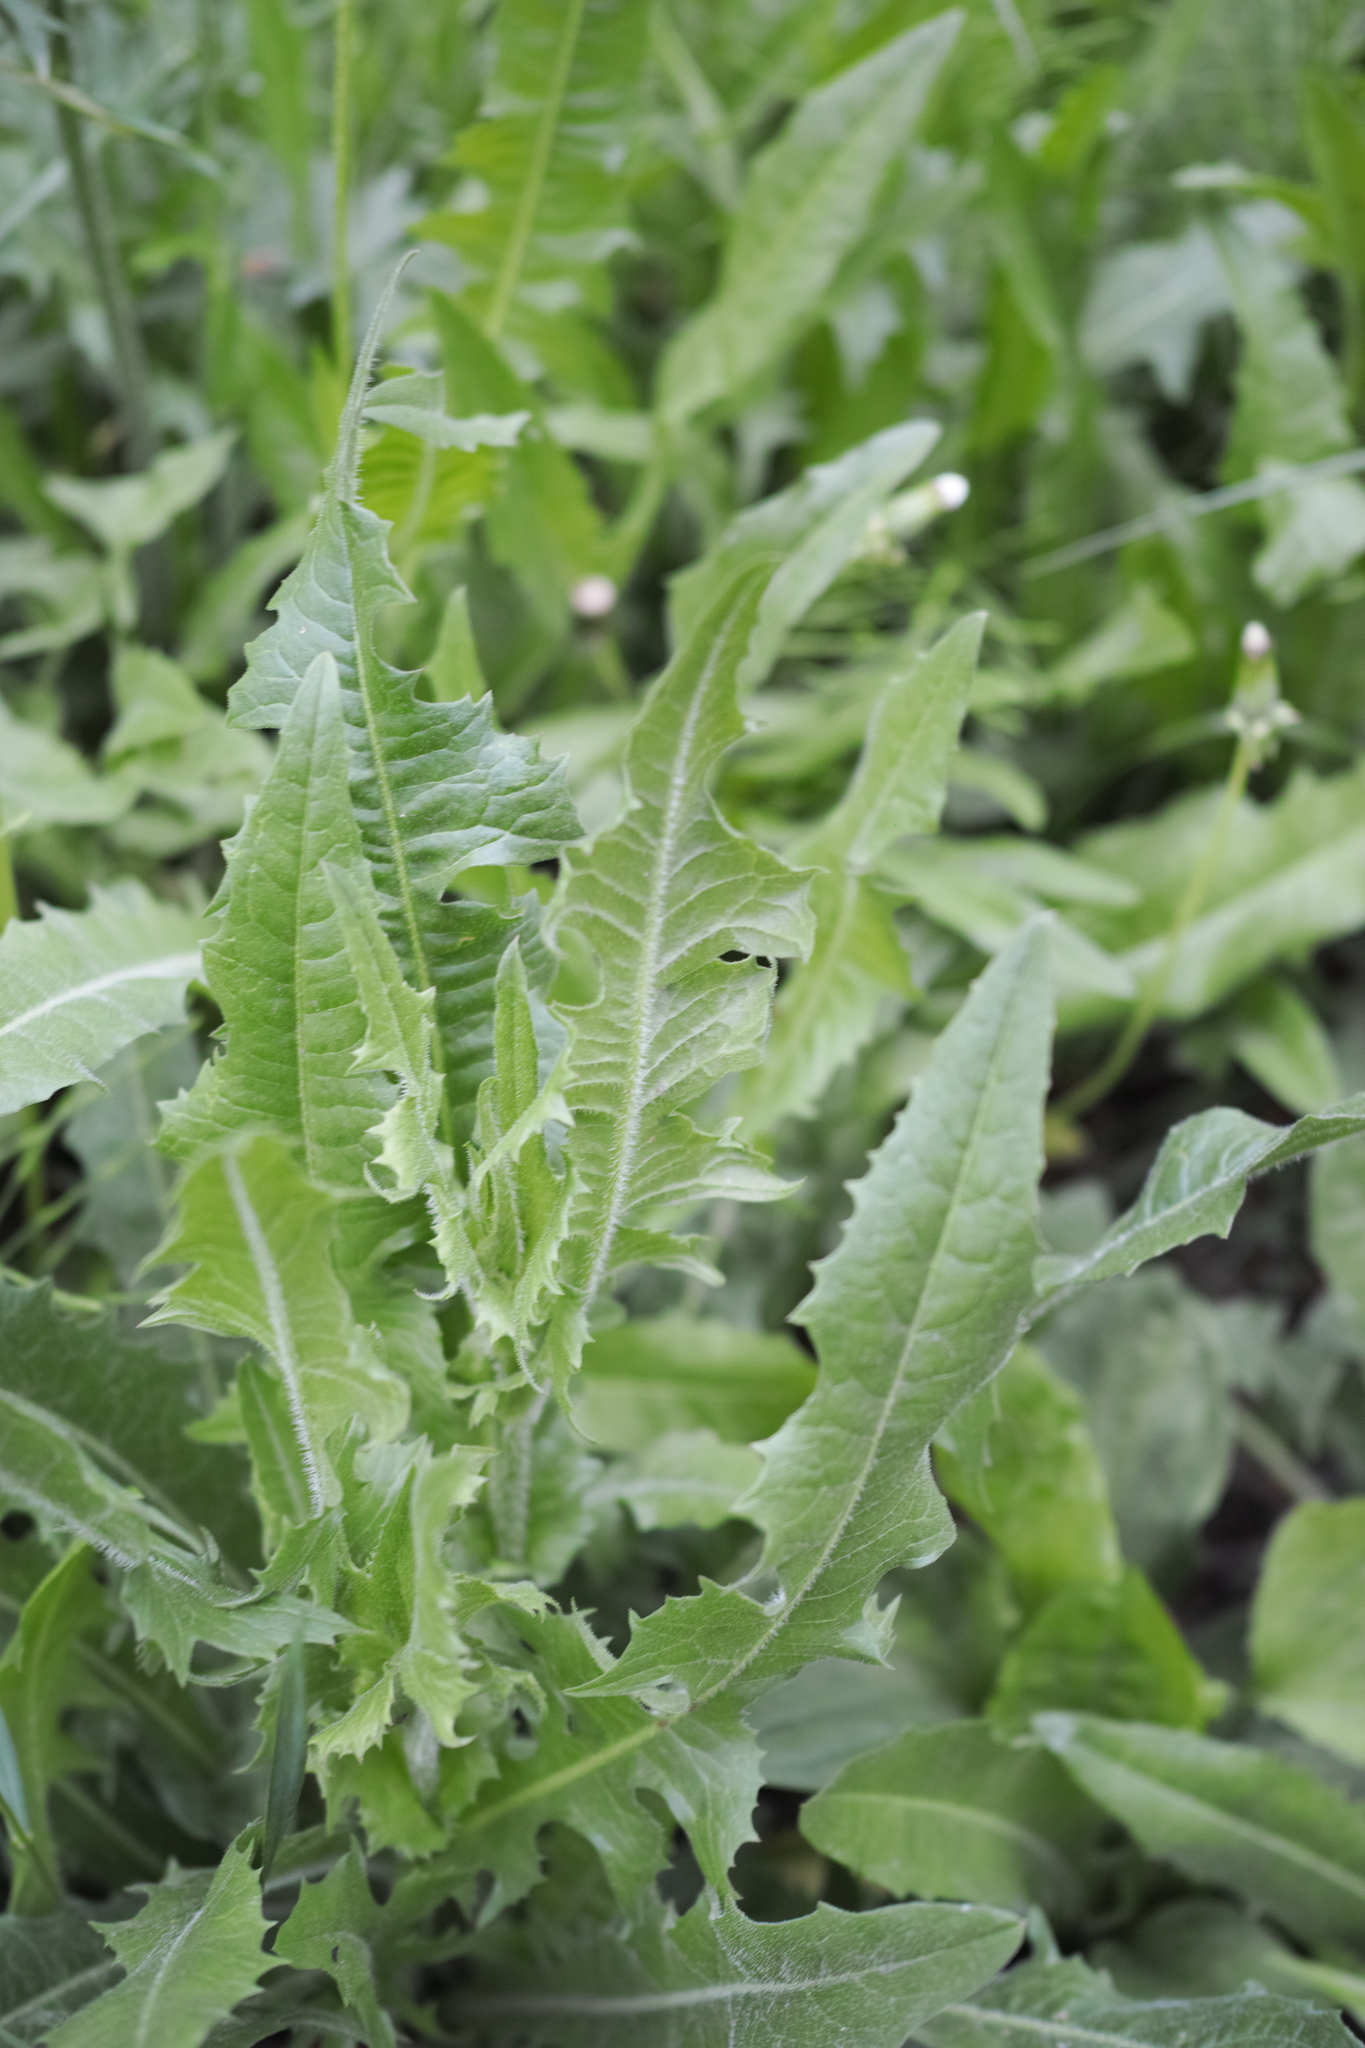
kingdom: Plantae
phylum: Tracheophyta
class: Magnoliopsida
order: Asterales
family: Asteraceae
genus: Cichorium
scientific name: Cichorium intybus
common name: Chicory
